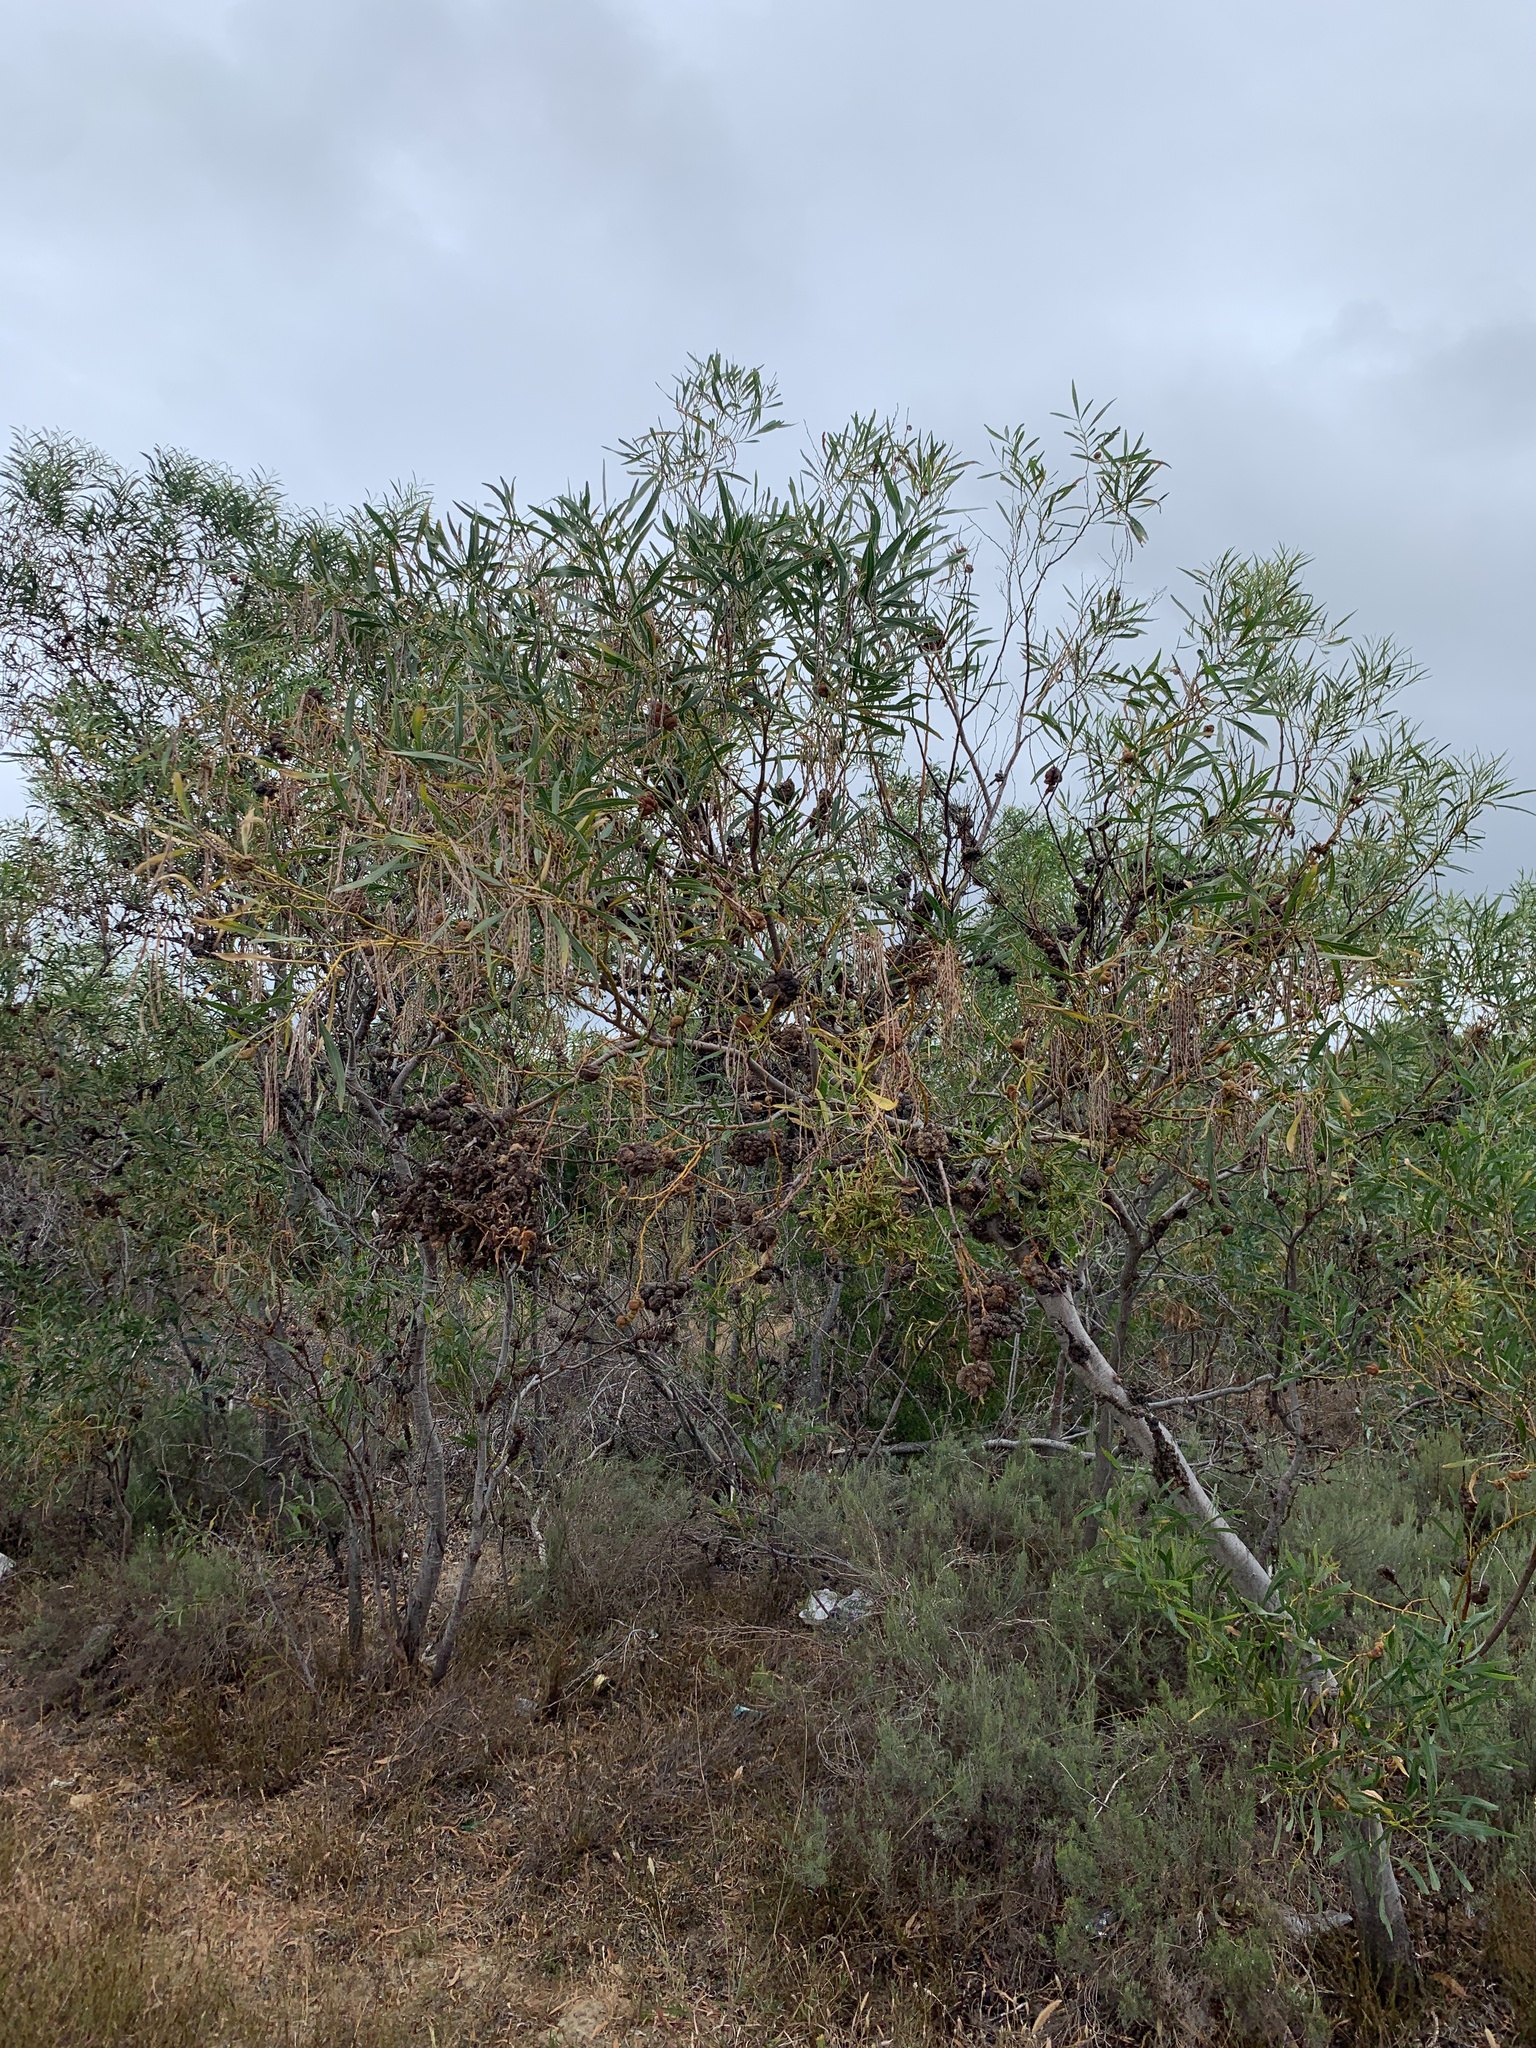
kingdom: Fungi
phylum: Basidiomycota
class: Pucciniomycetes
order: Pucciniales
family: Uromycladiaceae
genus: Uromycladium
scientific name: Uromycladium morrisii
